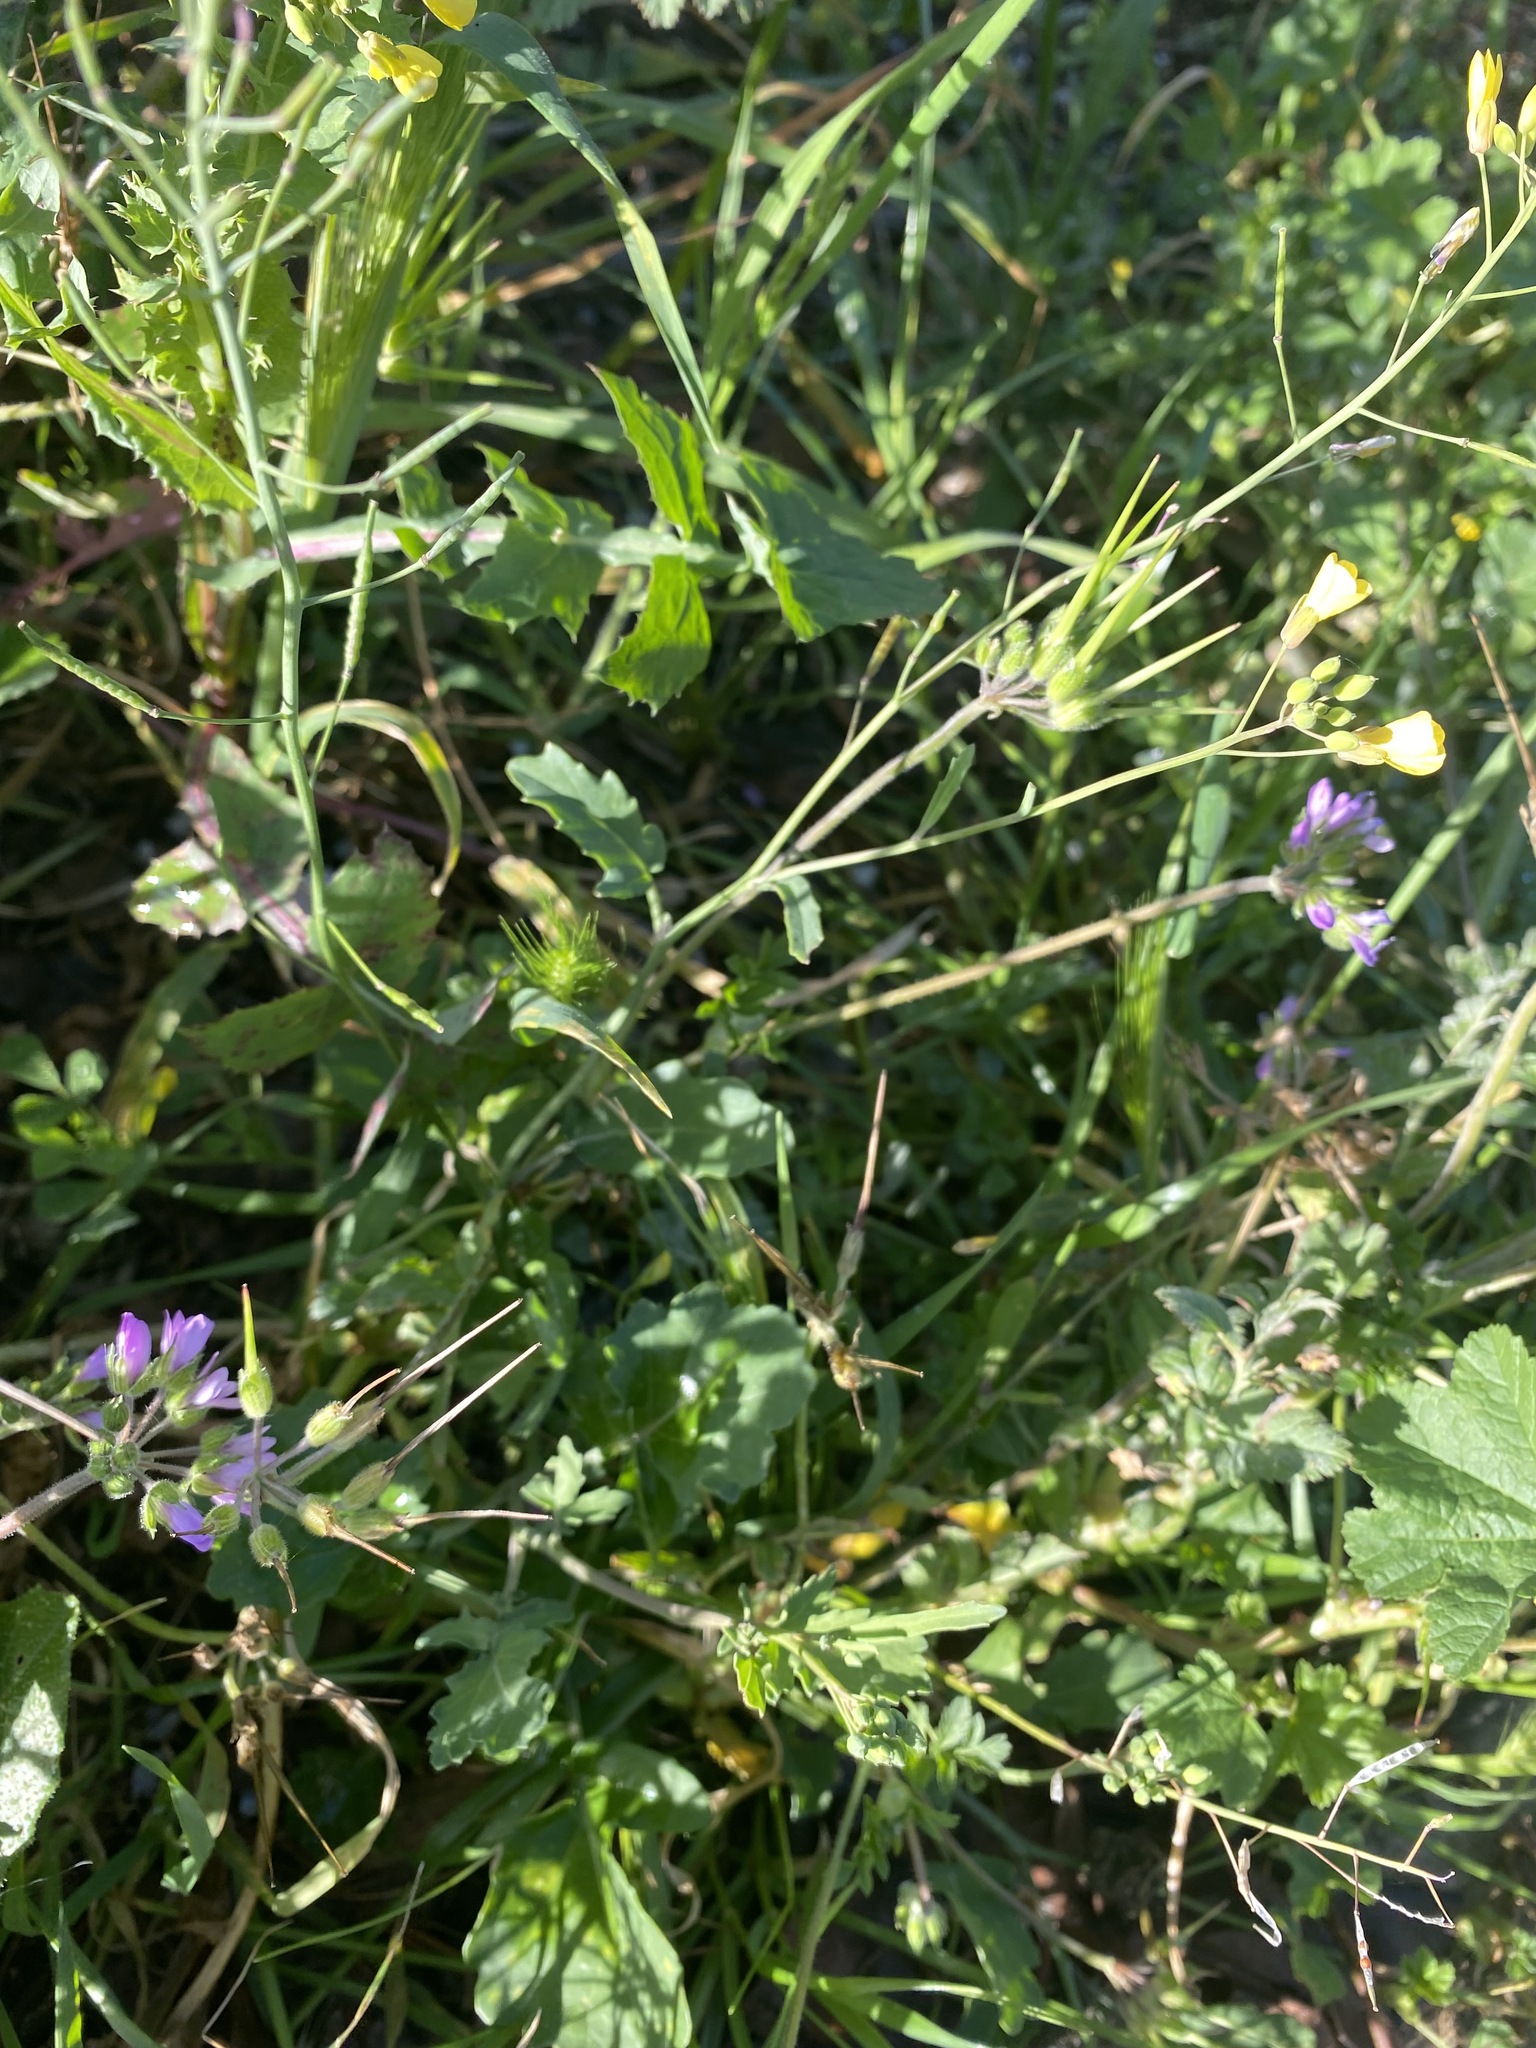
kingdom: Plantae
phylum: Tracheophyta
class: Magnoliopsida
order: Geraniales
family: Geraniaceae
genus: Erodium
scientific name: Erodium moschatum
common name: Musk stork's-bill
